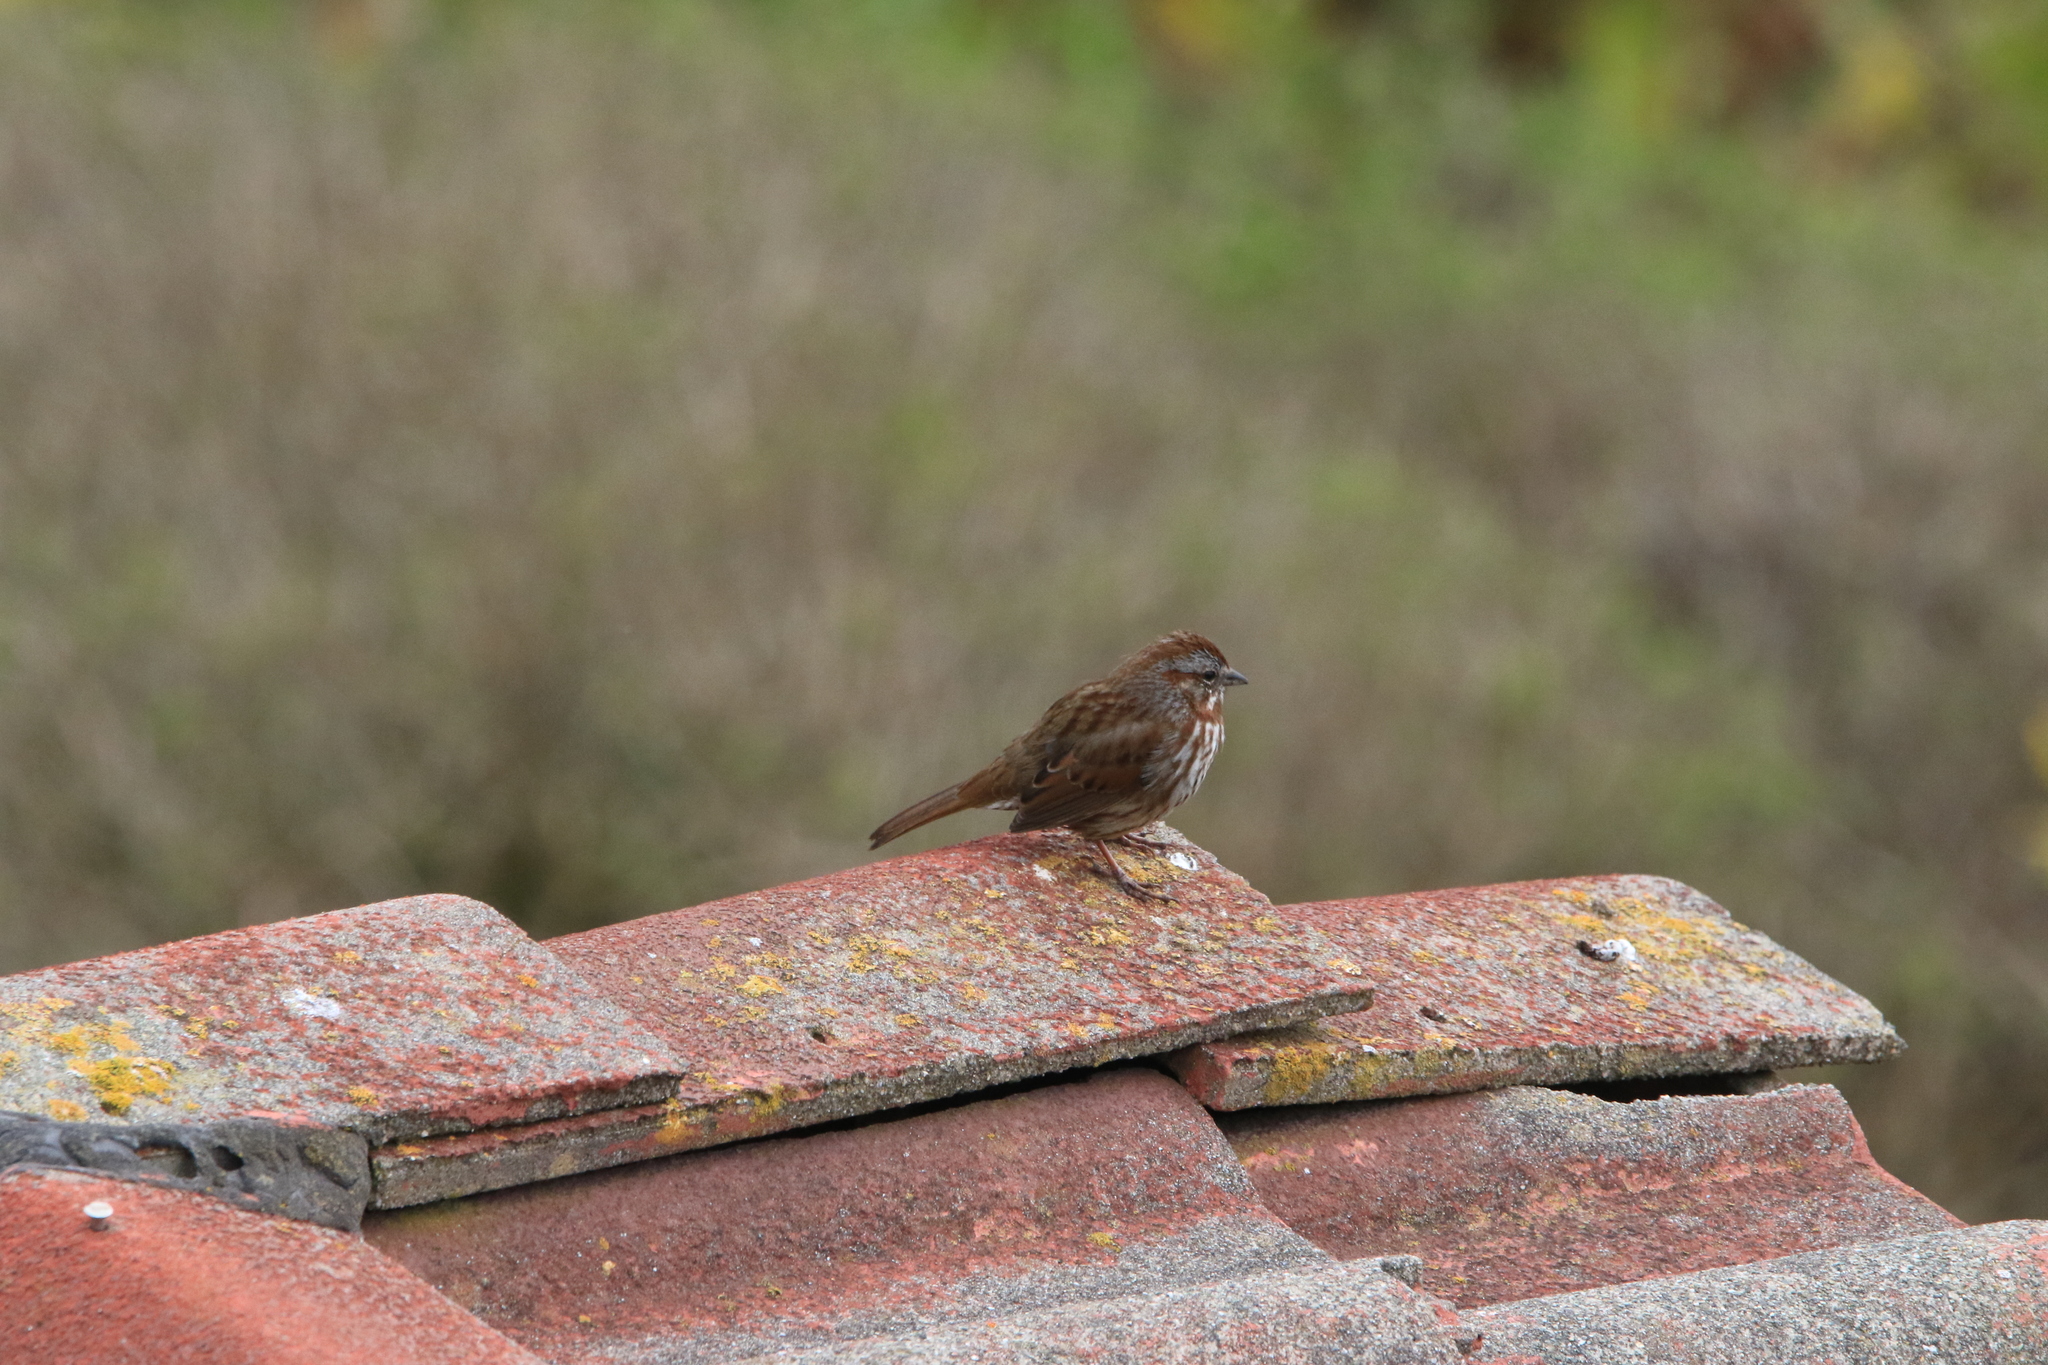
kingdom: Animalia
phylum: Chordata
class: Aves
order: Passeriformes
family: Passerellidae
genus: Melospiza
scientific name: Melospiza melodia
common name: Song sparrow
